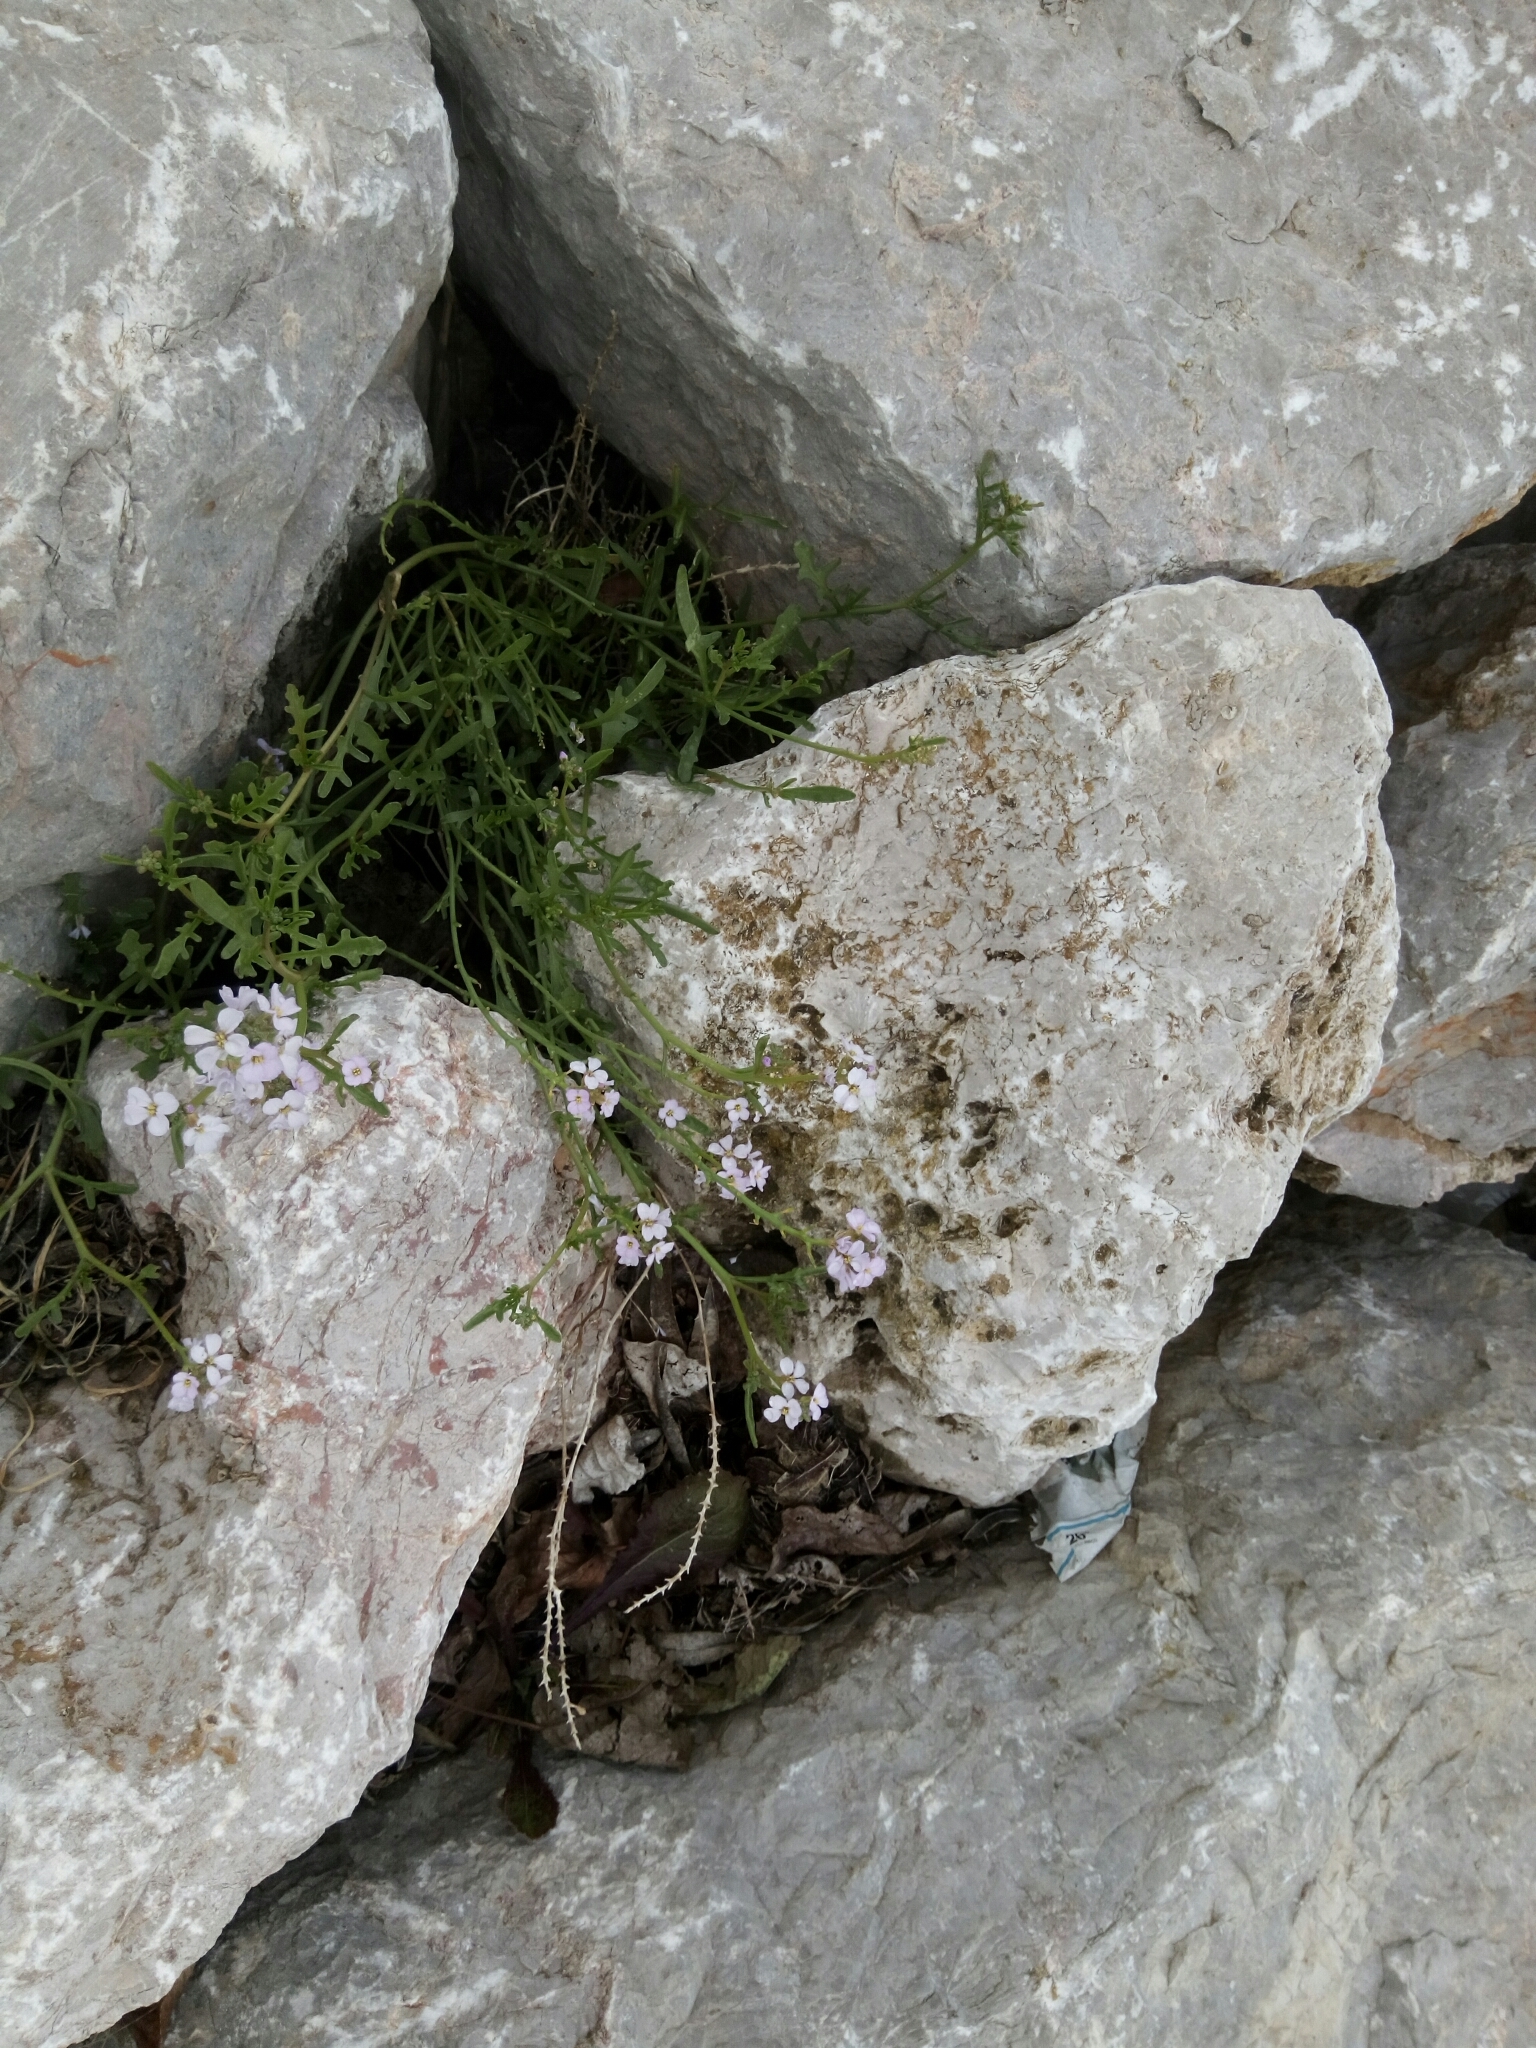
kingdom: Plantae
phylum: Tracheophyta
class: Magnoliopsida
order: Brassicales
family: Brassicaceae
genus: Cakile
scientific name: Cakile maritima
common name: Sea rocket
